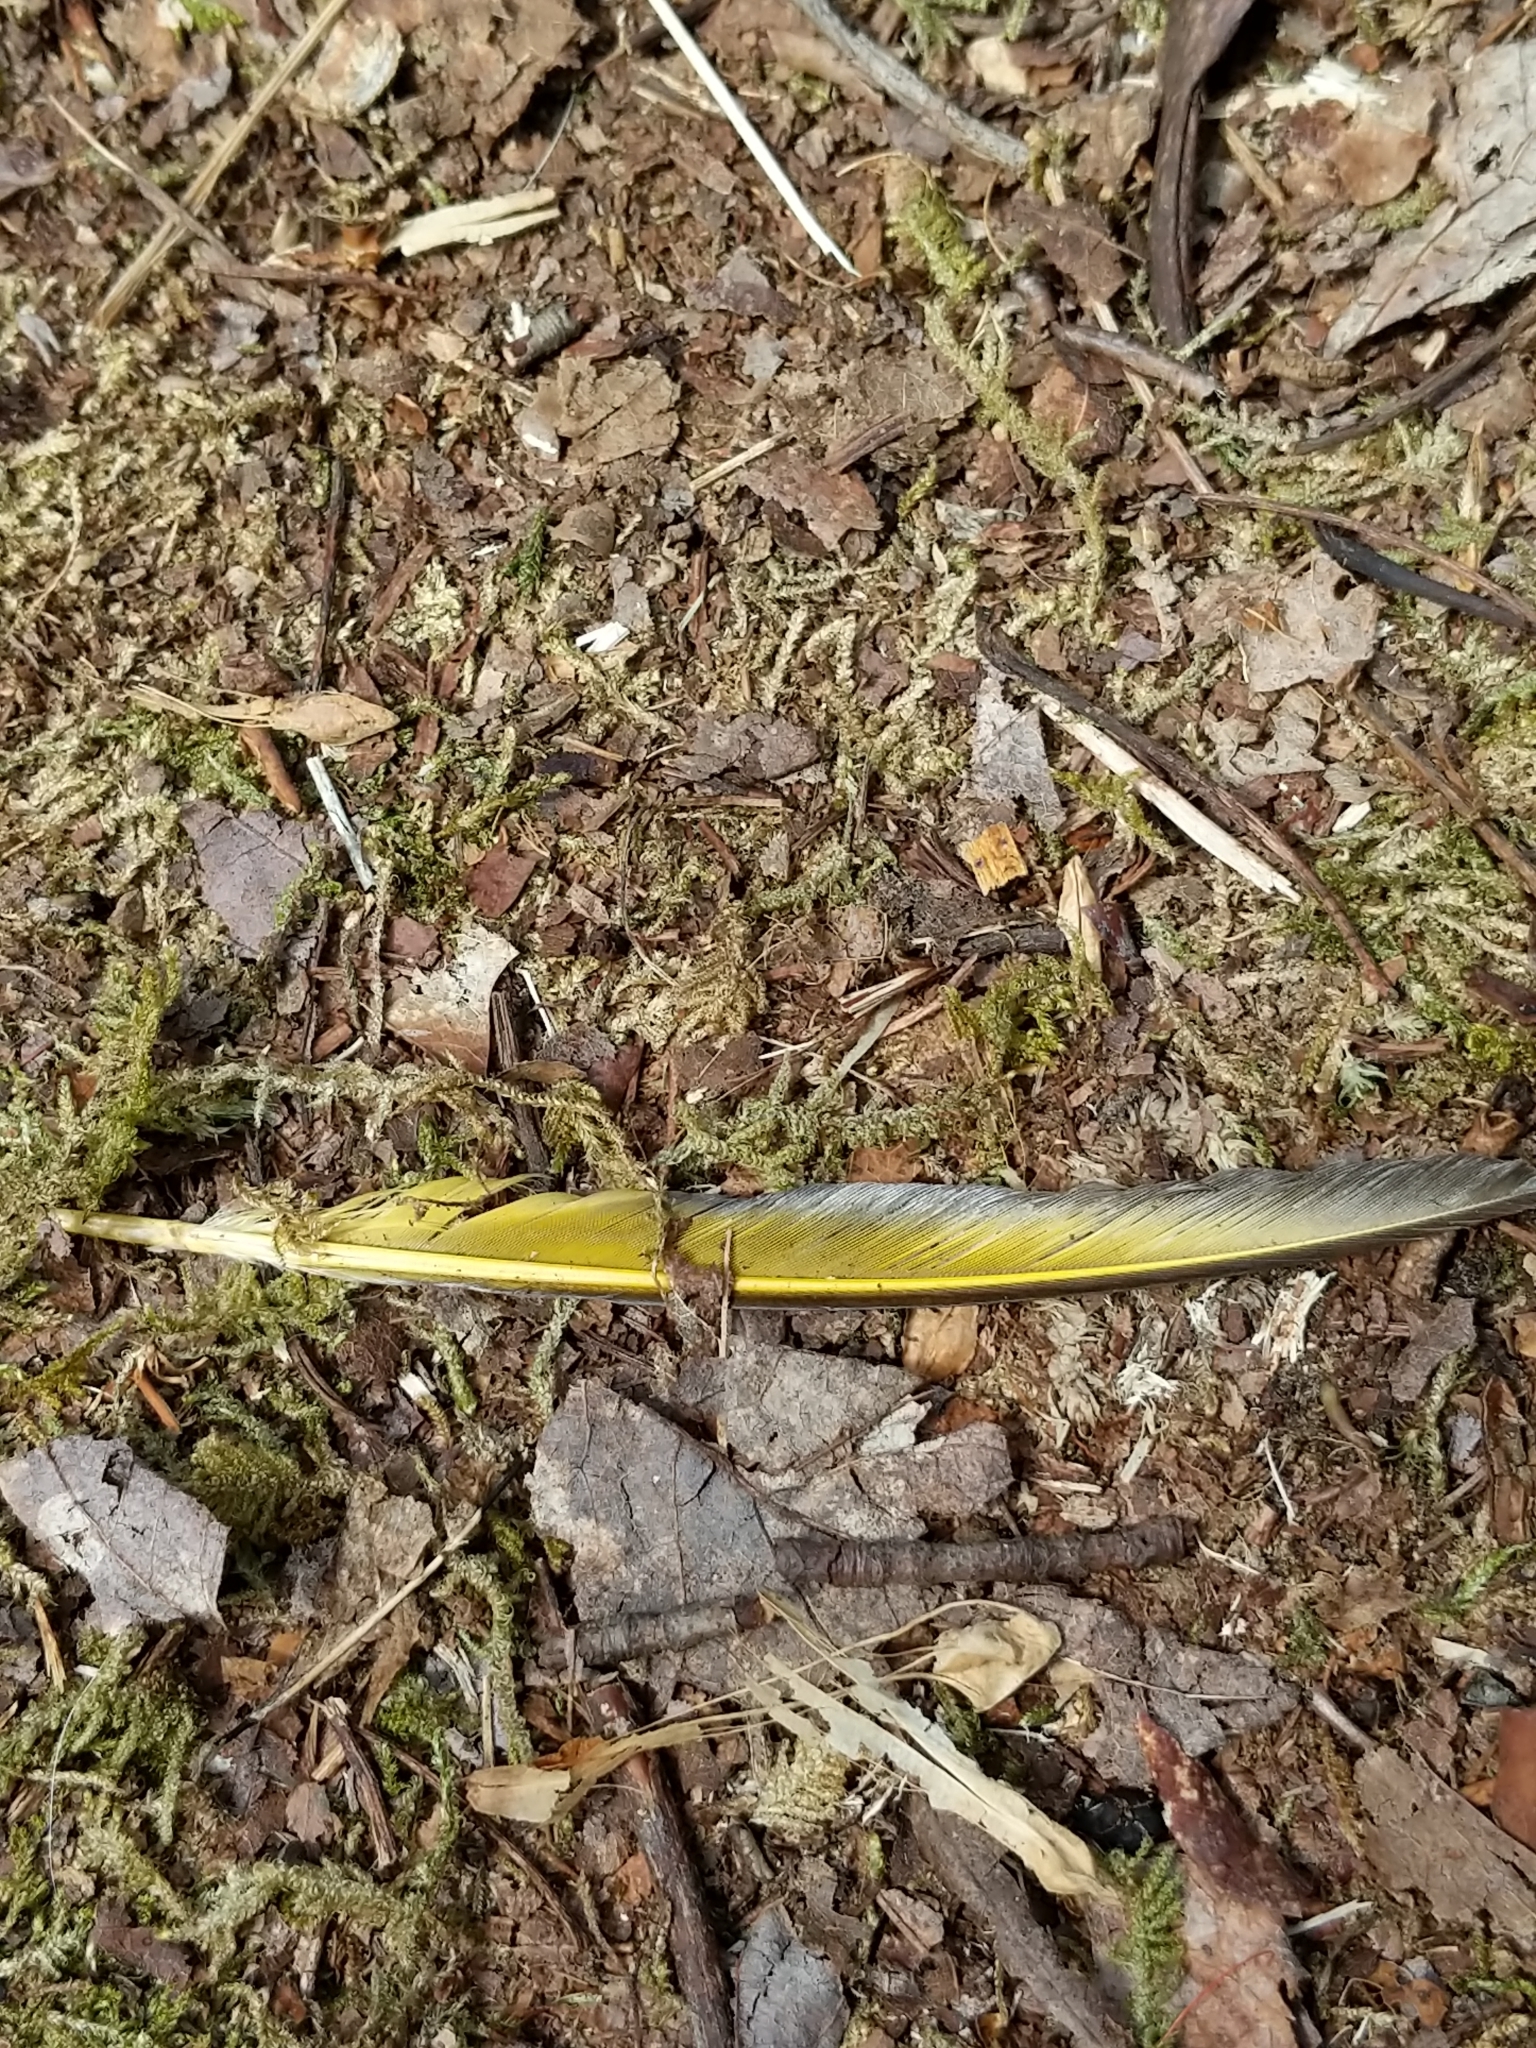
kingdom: Animalia
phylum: Chordata
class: Aves
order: Piciformes
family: Picidae
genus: Colaptes
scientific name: Colaptes auratus
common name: Northern flicker
